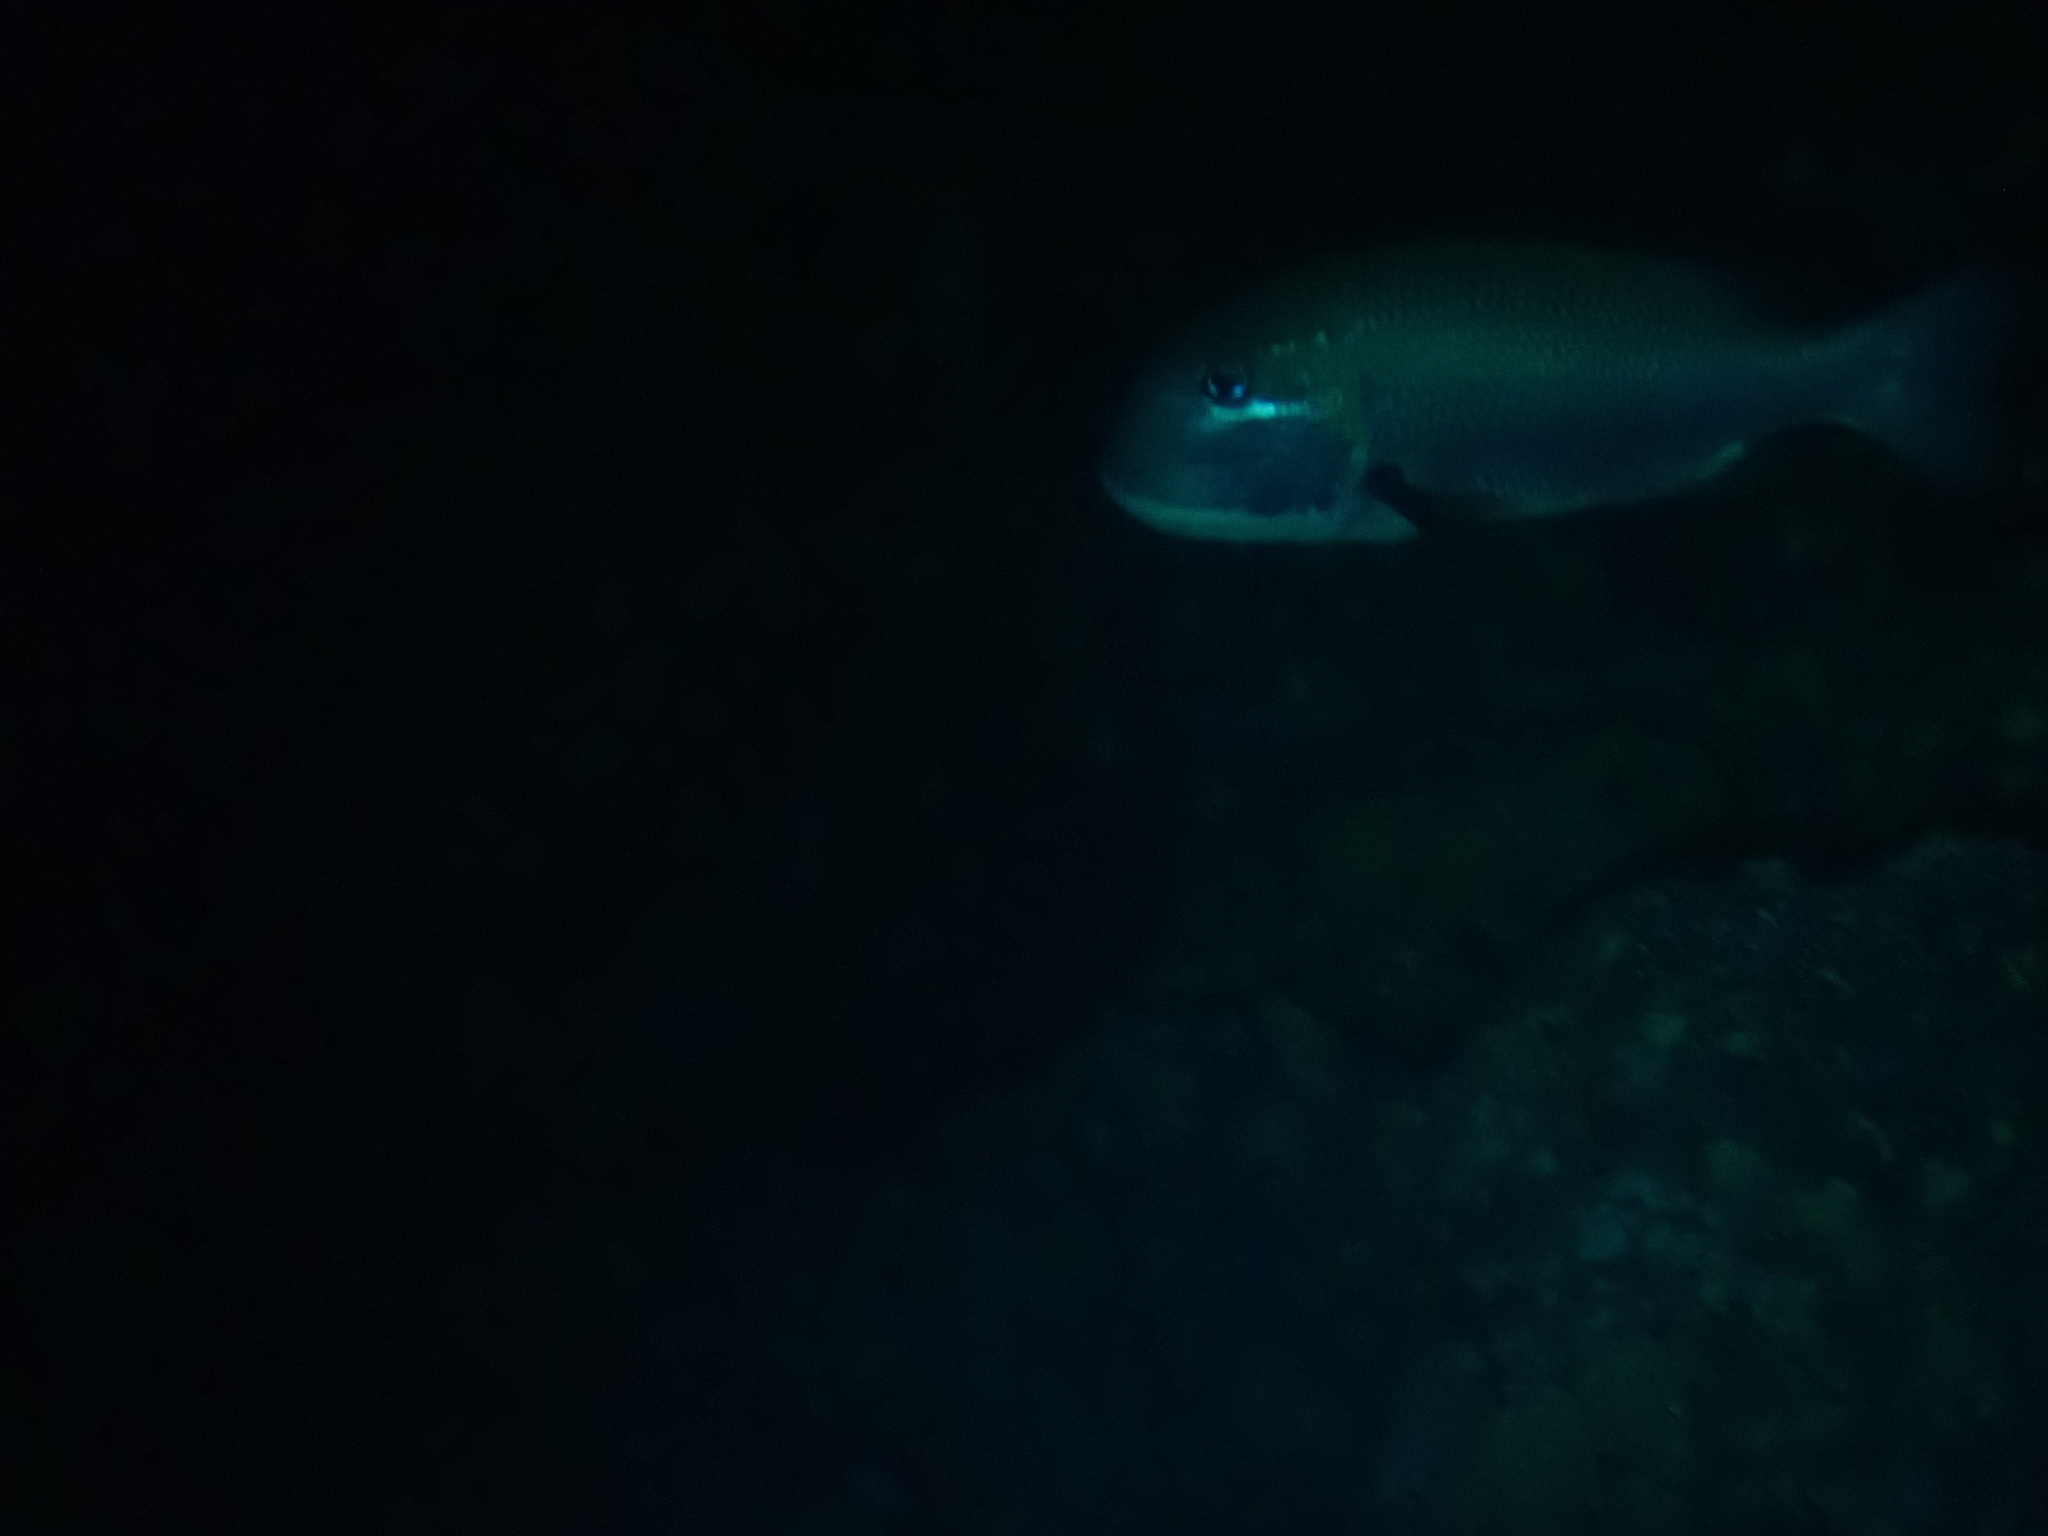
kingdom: Animalia
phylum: Chordata
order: Perciformes
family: Lethrinidae
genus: Monotaxis
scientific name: Monotaxis grandoculis
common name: Bigeye emperor
